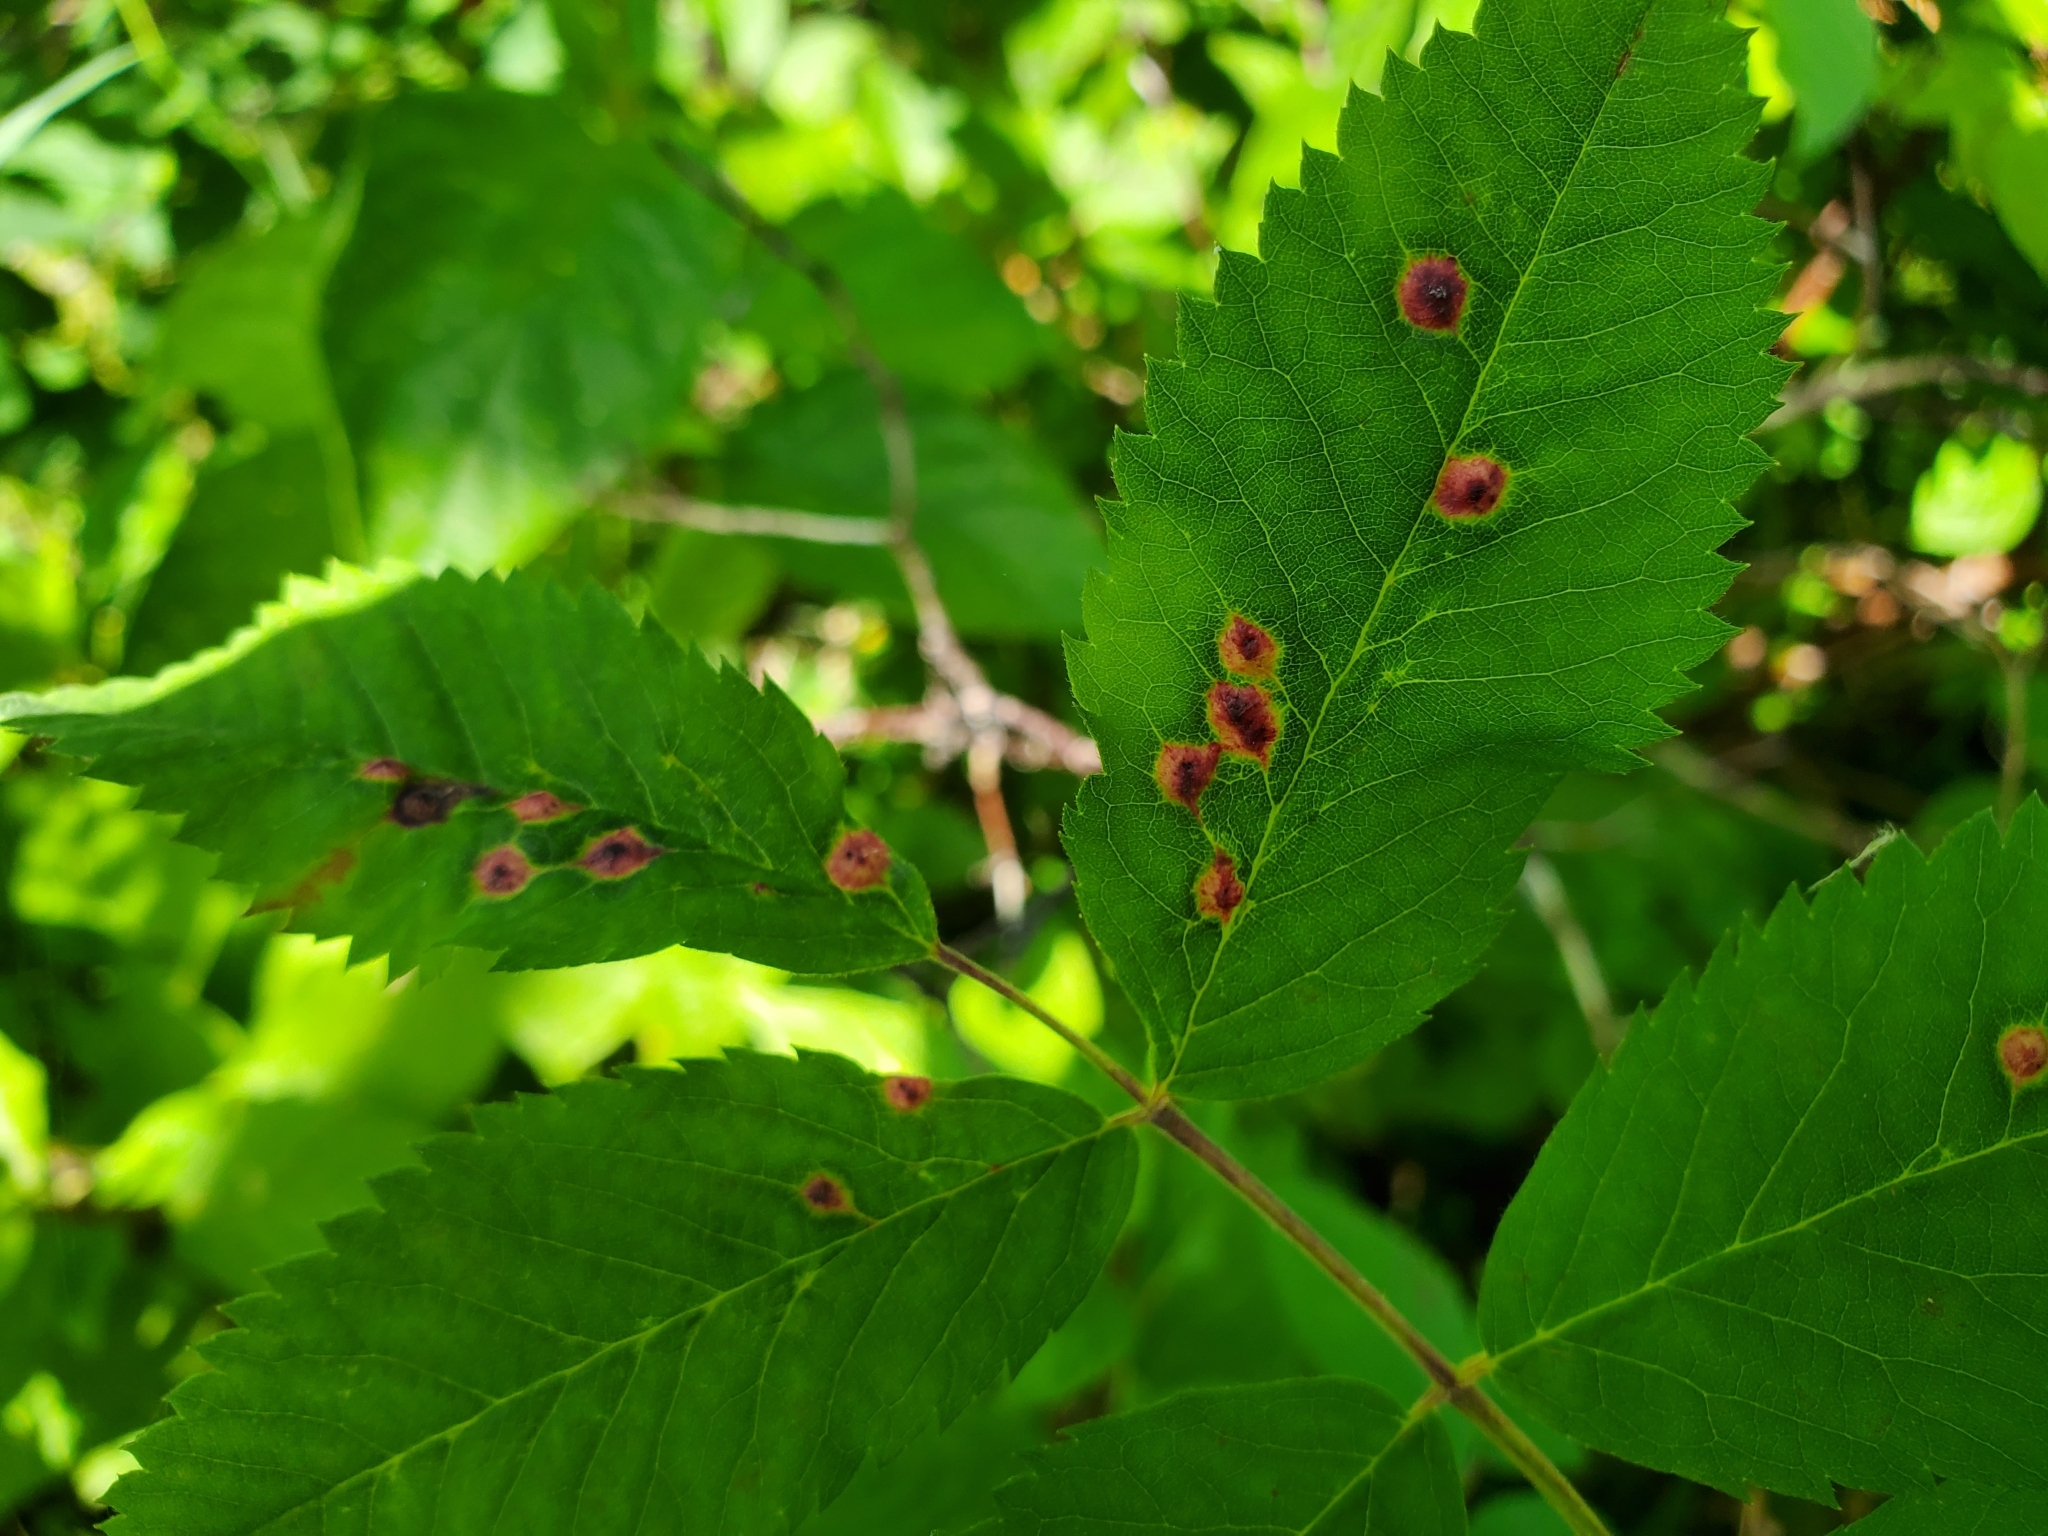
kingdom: Animalia
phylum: Arthropoda
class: Insecta
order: Hymenoptera
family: Cynipidae
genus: Diplolepis
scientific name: Diplolepis rosaefolii
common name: Blister-gall wasp
